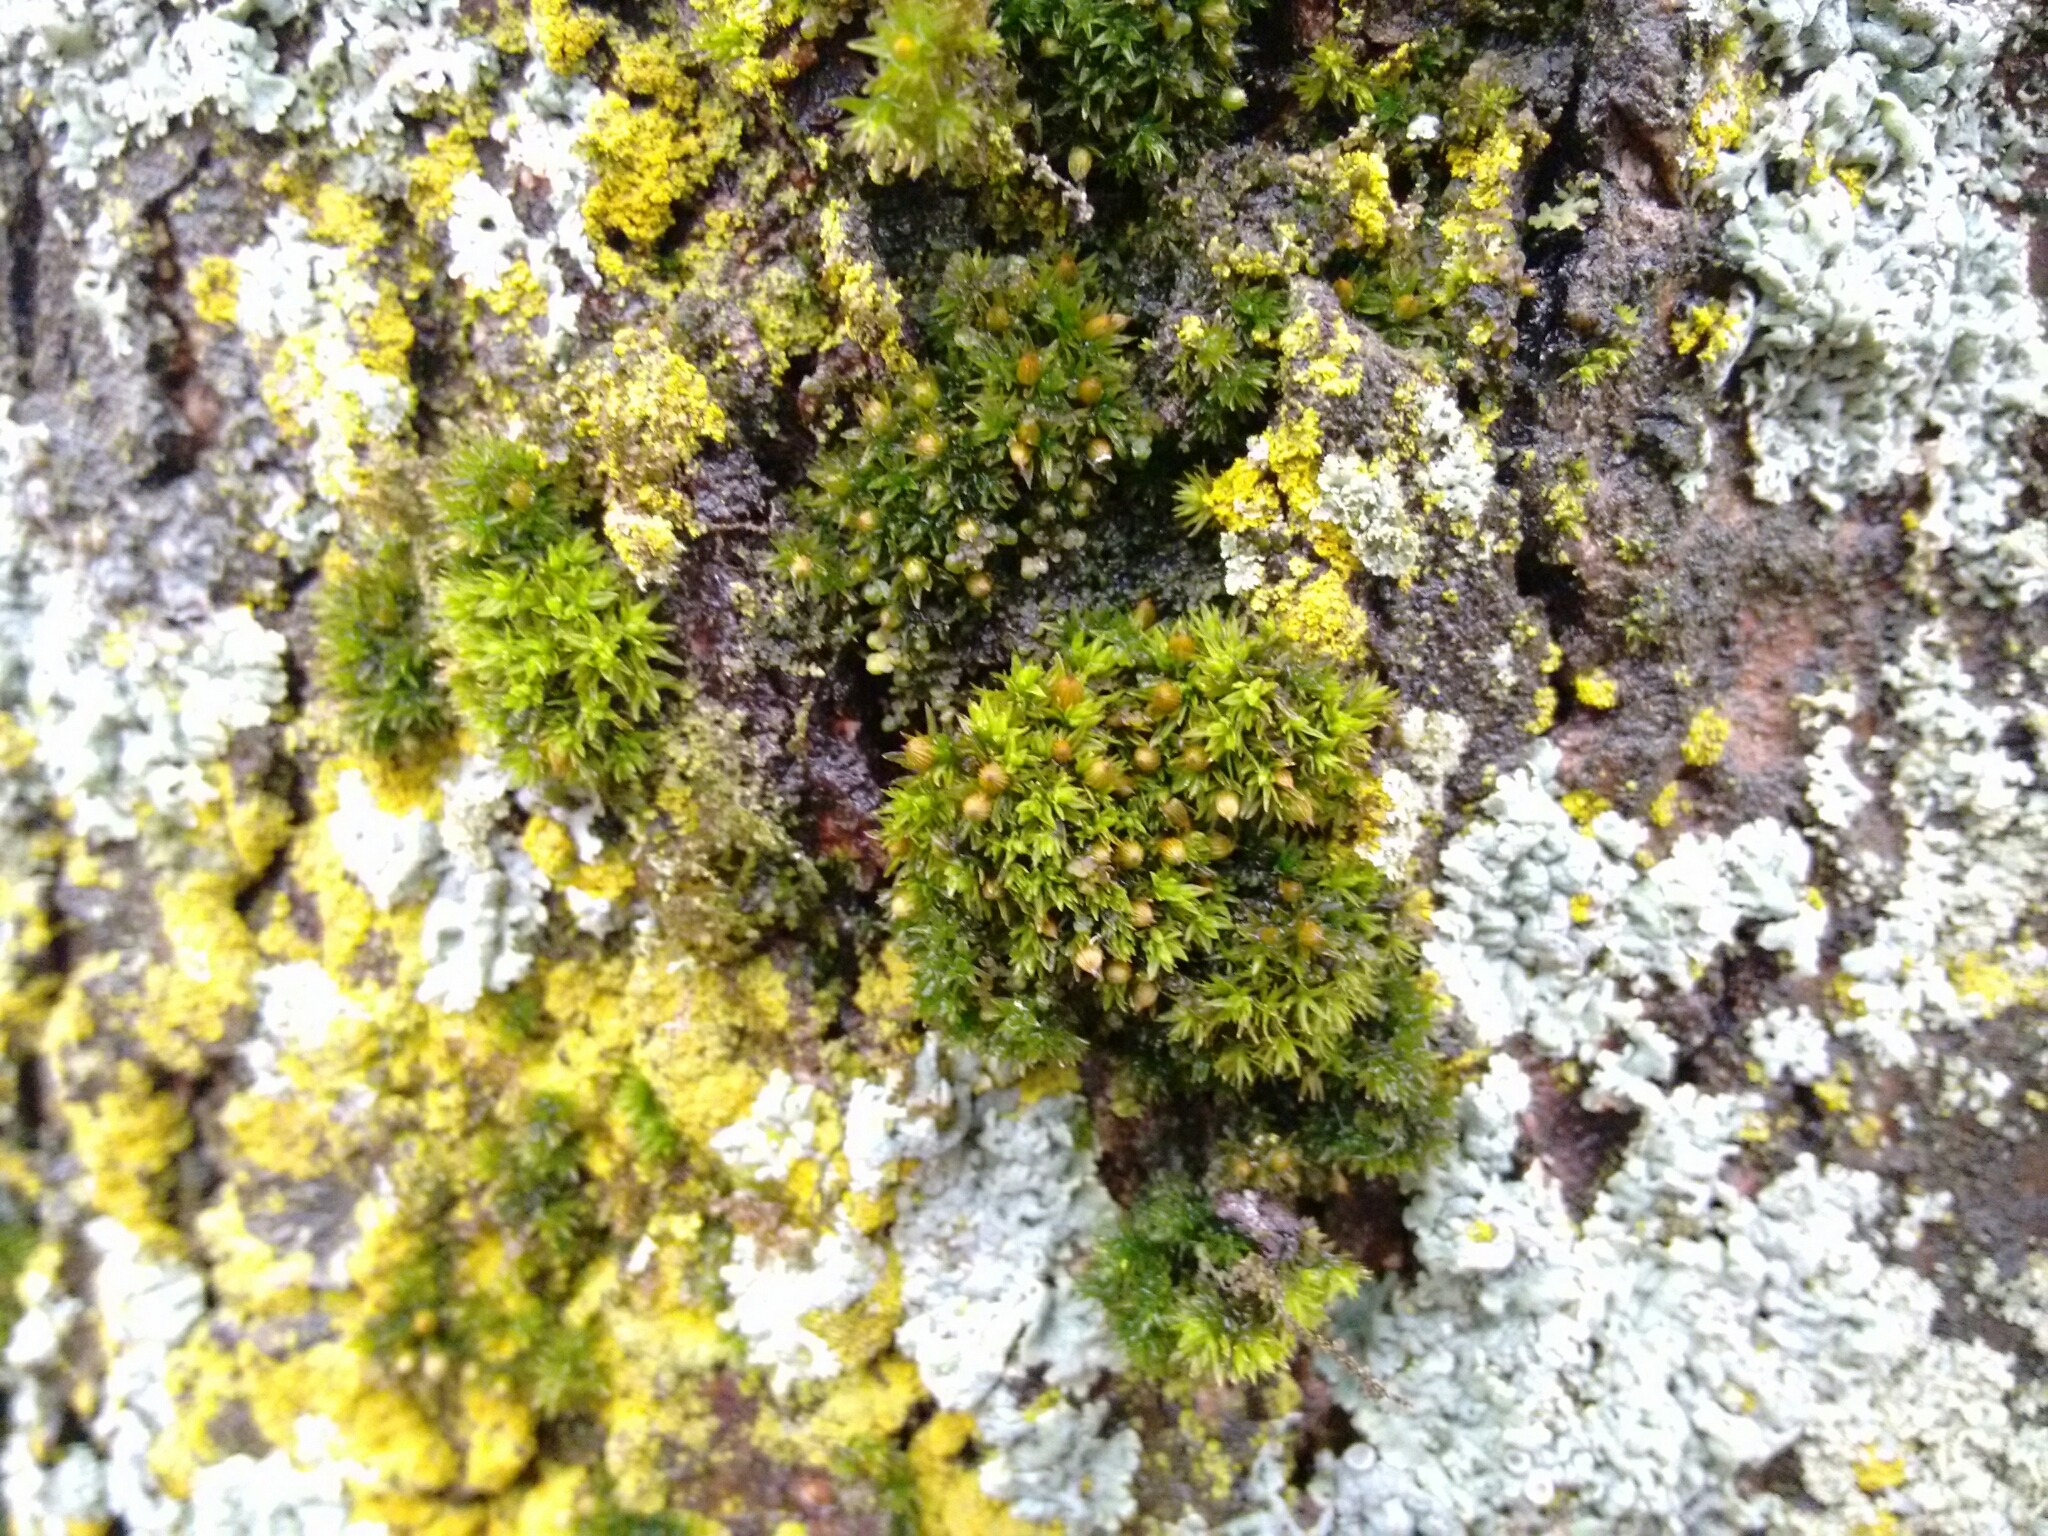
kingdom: Plantae
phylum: Bryophyta
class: Bryopsida
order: Orthotrichales
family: Orthotrichaceae
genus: Orthotrichum
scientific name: Orthotrichum stellatum
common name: Starlike bristle moss
